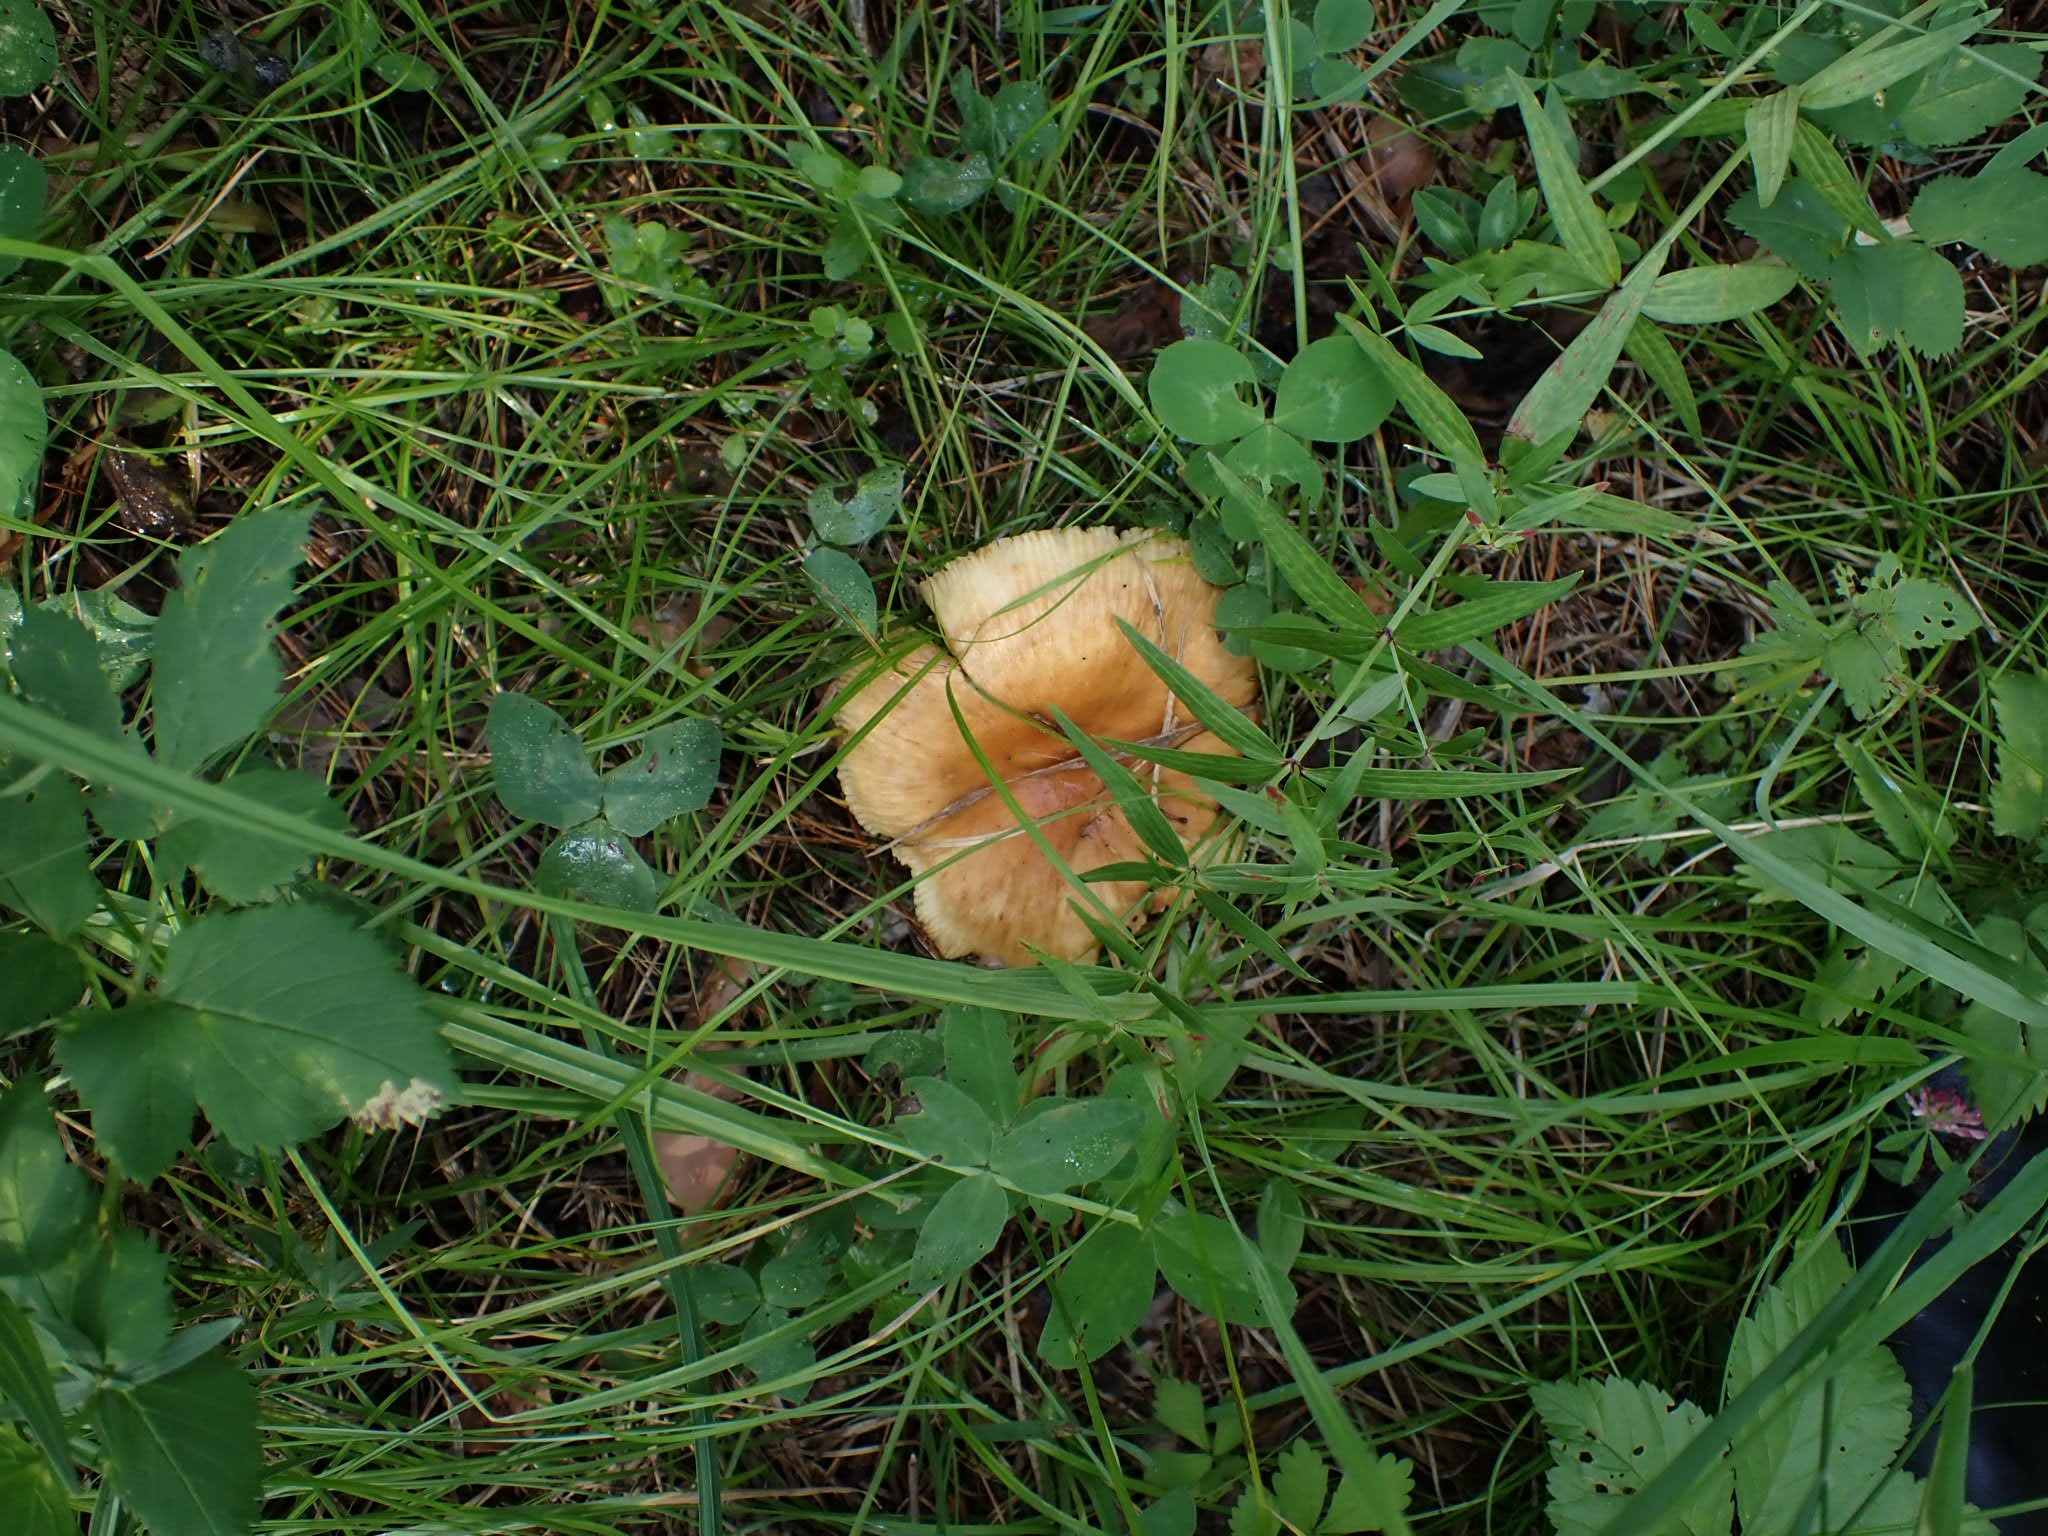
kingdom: Fungi
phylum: Basidiomycota
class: Agaricomycetes
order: Russulales
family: Russulaceae
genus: Russula
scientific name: Russula foetens
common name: Foetid russula
